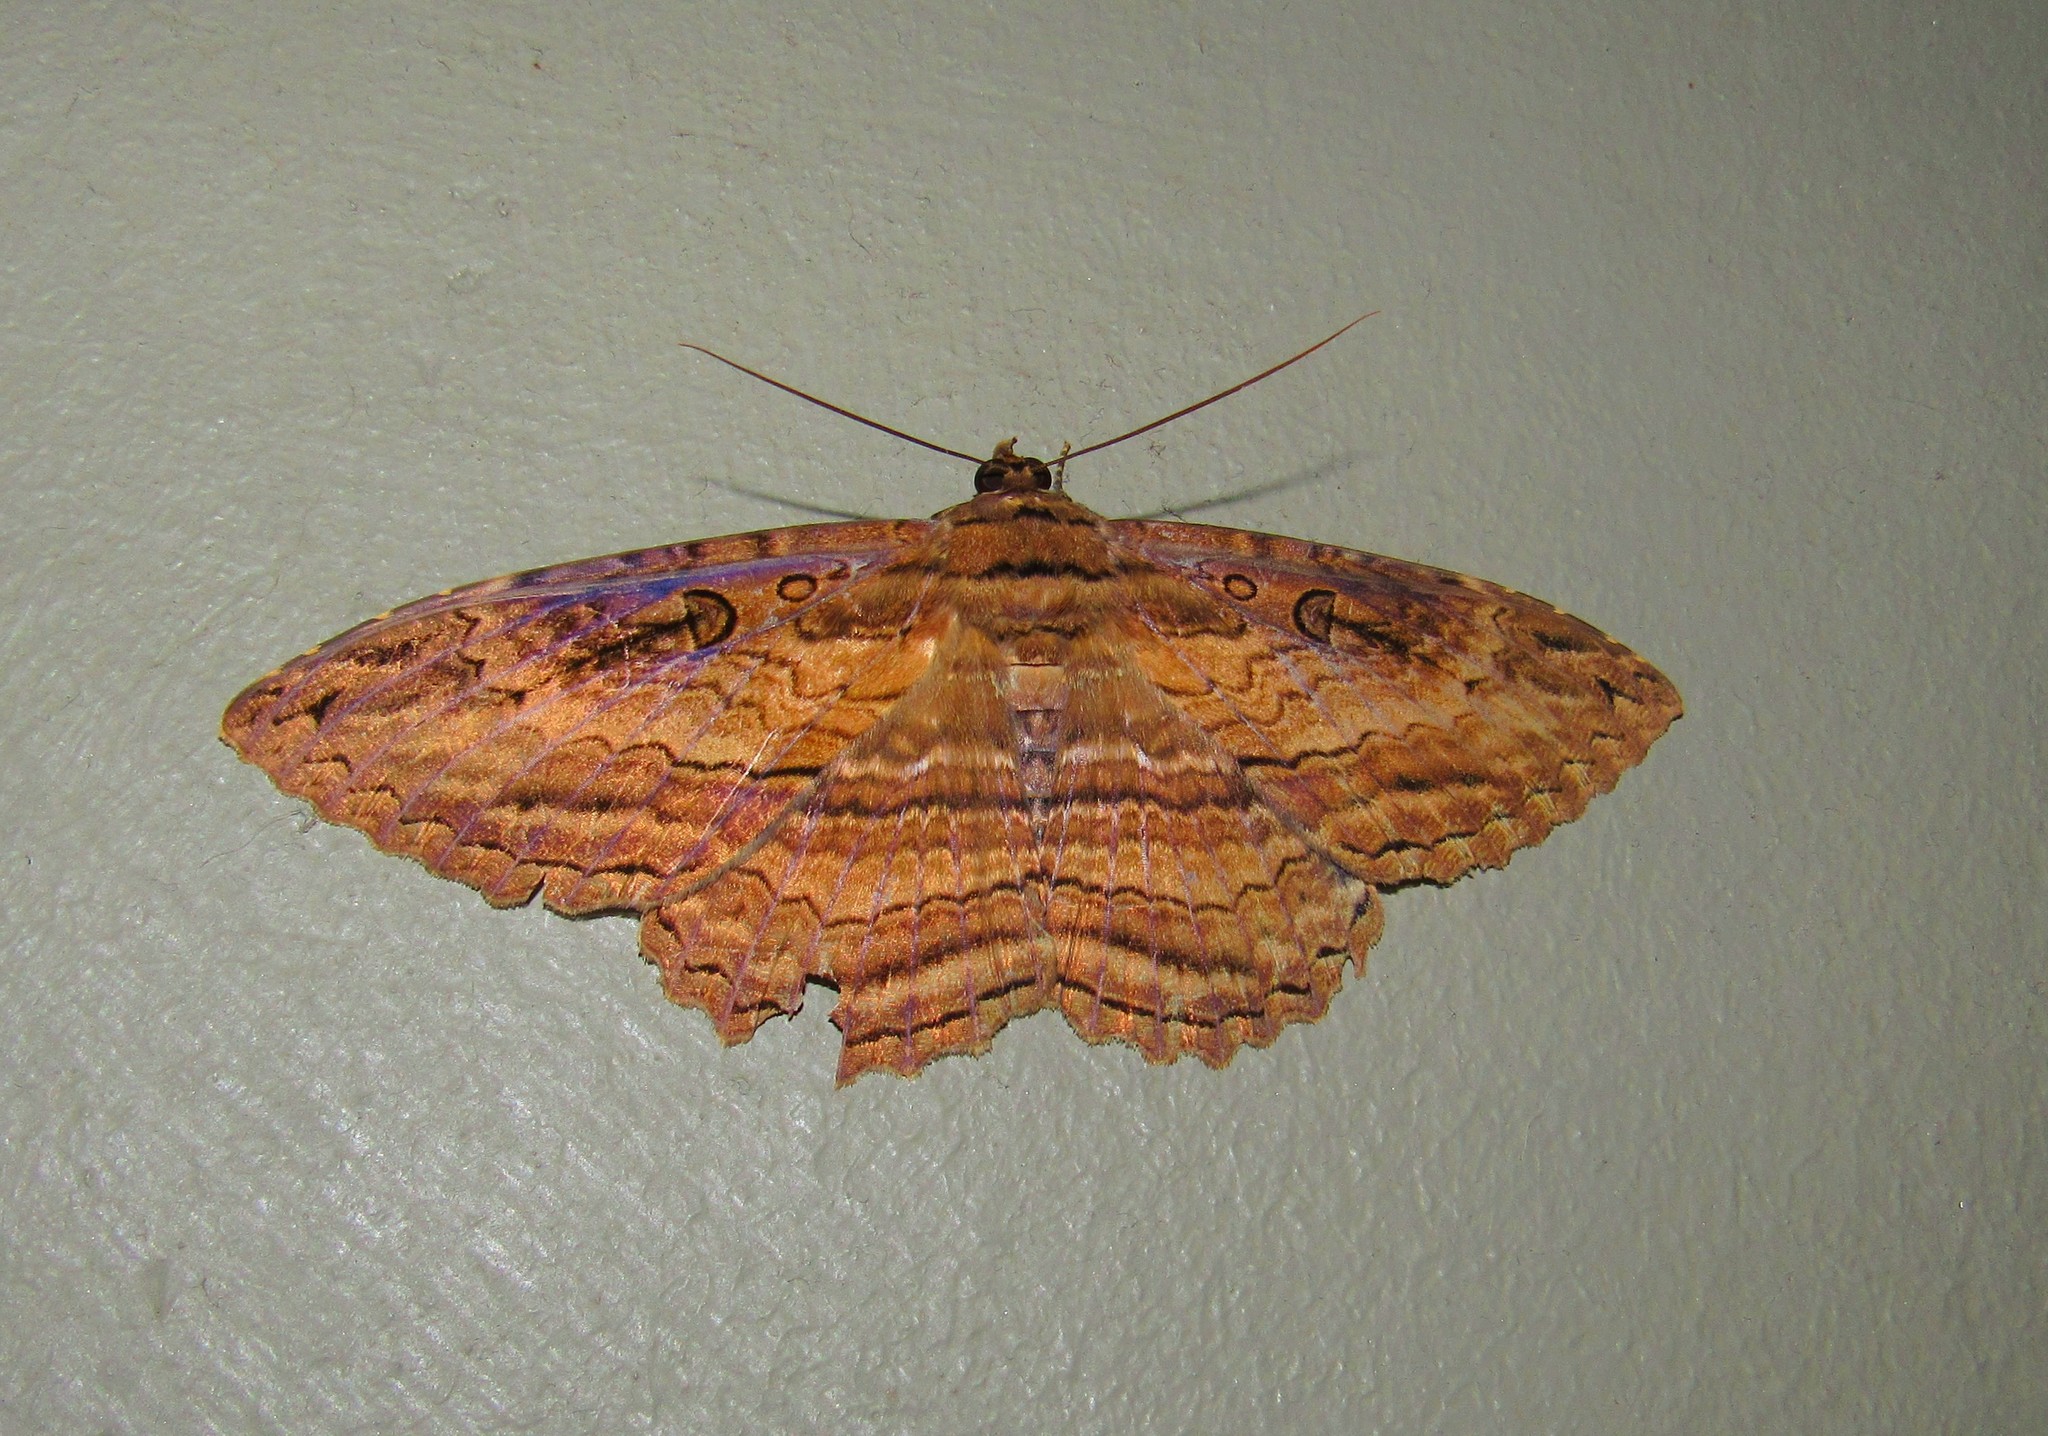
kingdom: Animalia
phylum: Arthropoda
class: Insecta
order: Lepidoptera
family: Erebidae
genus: Feigeria
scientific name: Feigeria buteo
